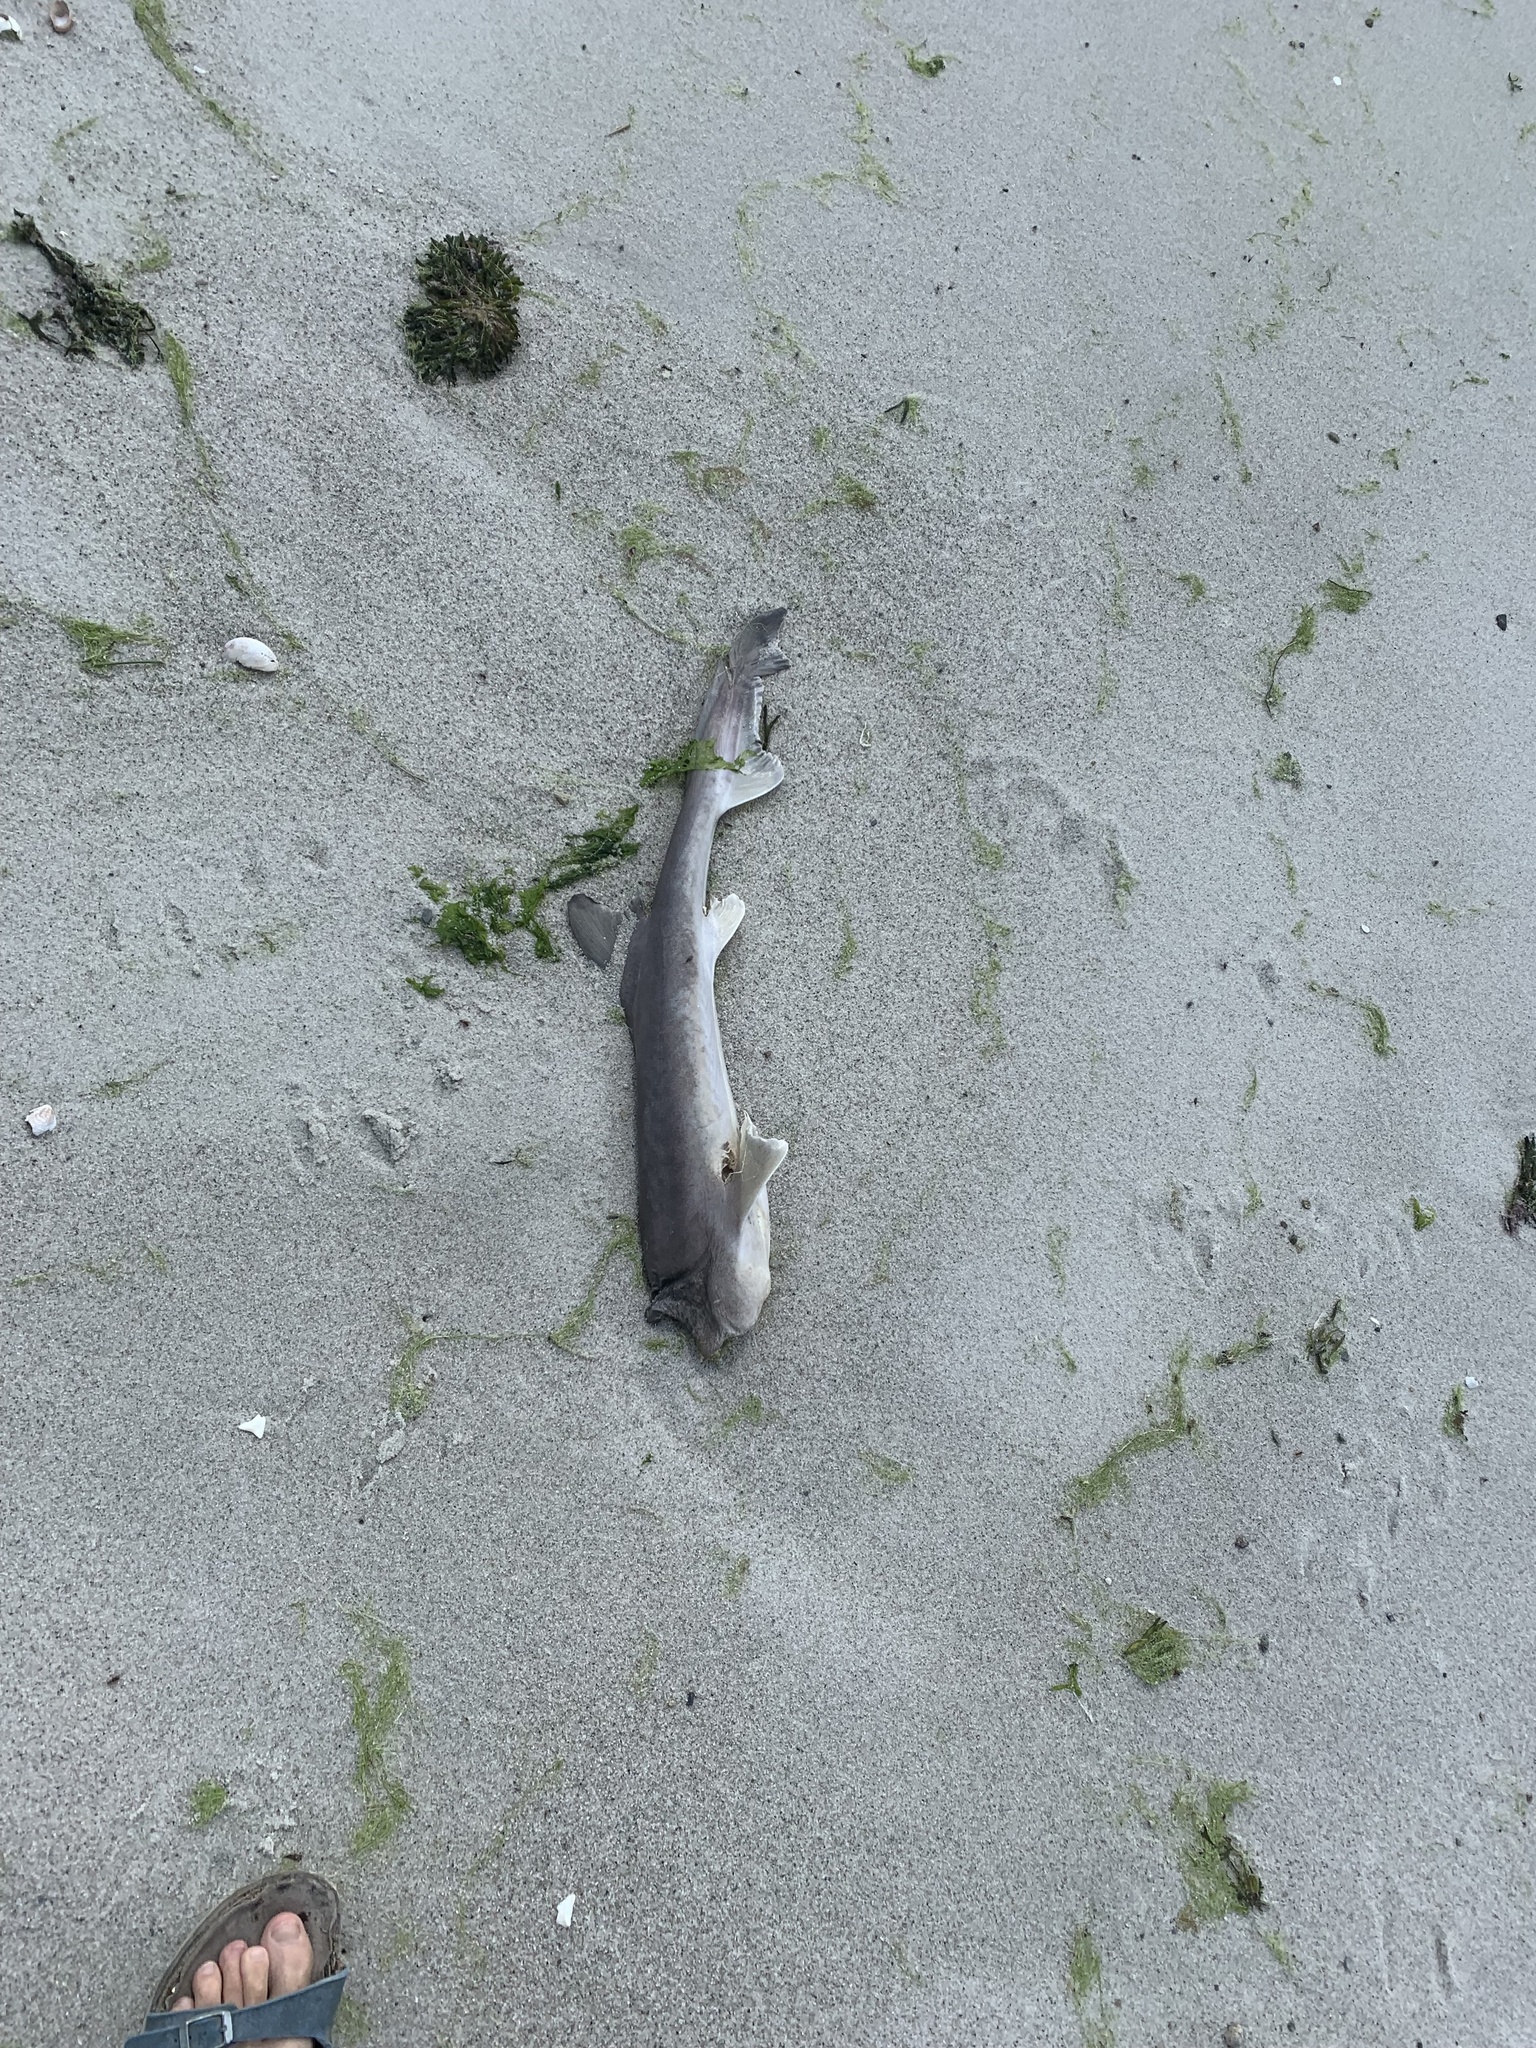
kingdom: Animalia
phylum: Chordata
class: Elasmobranchii
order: Carcharhiniformes
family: Triakidae
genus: Mustelus
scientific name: Mustelus canis
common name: Smooth dogfish
